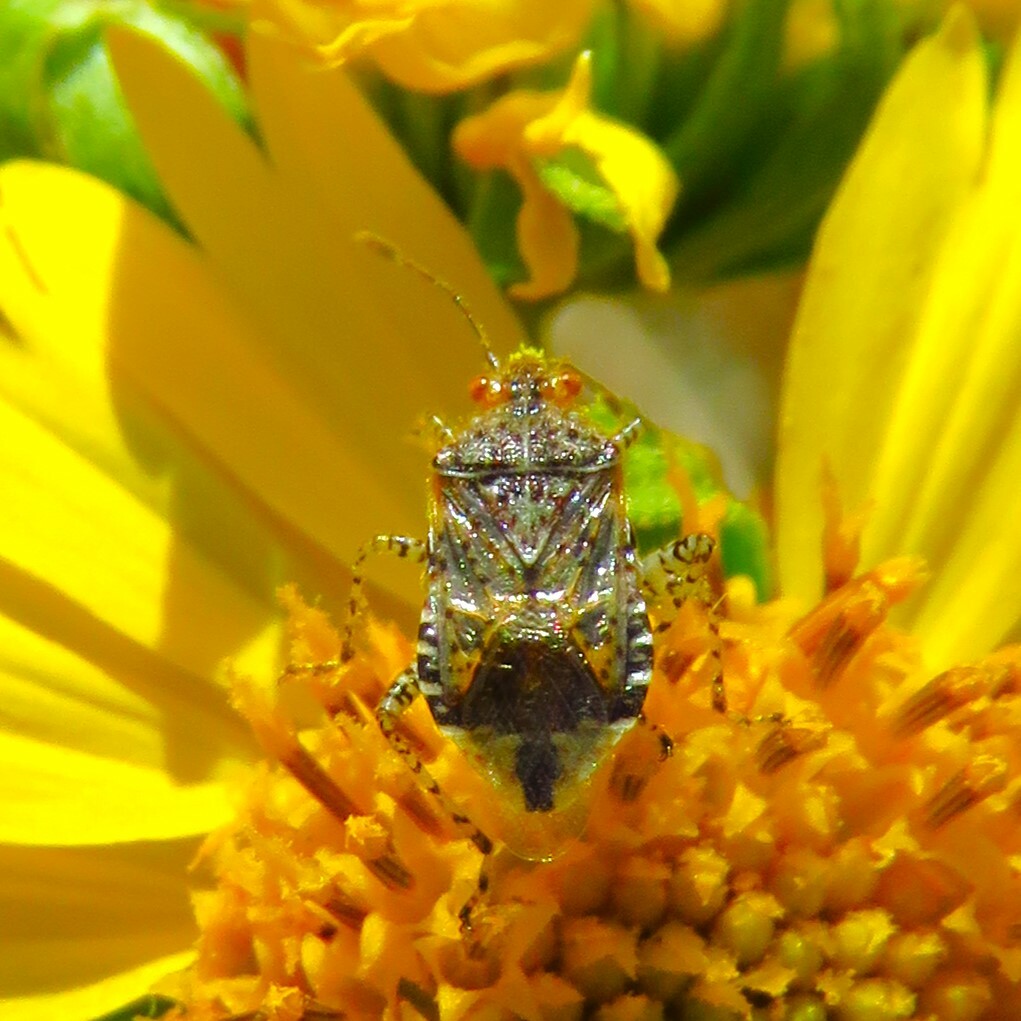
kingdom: Animalia
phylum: Arthropoda
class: Insecta
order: Hemiptera
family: Rhopalidae
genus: Niesthrea
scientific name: Niesthrea louisianica
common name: Scentless plant bug
